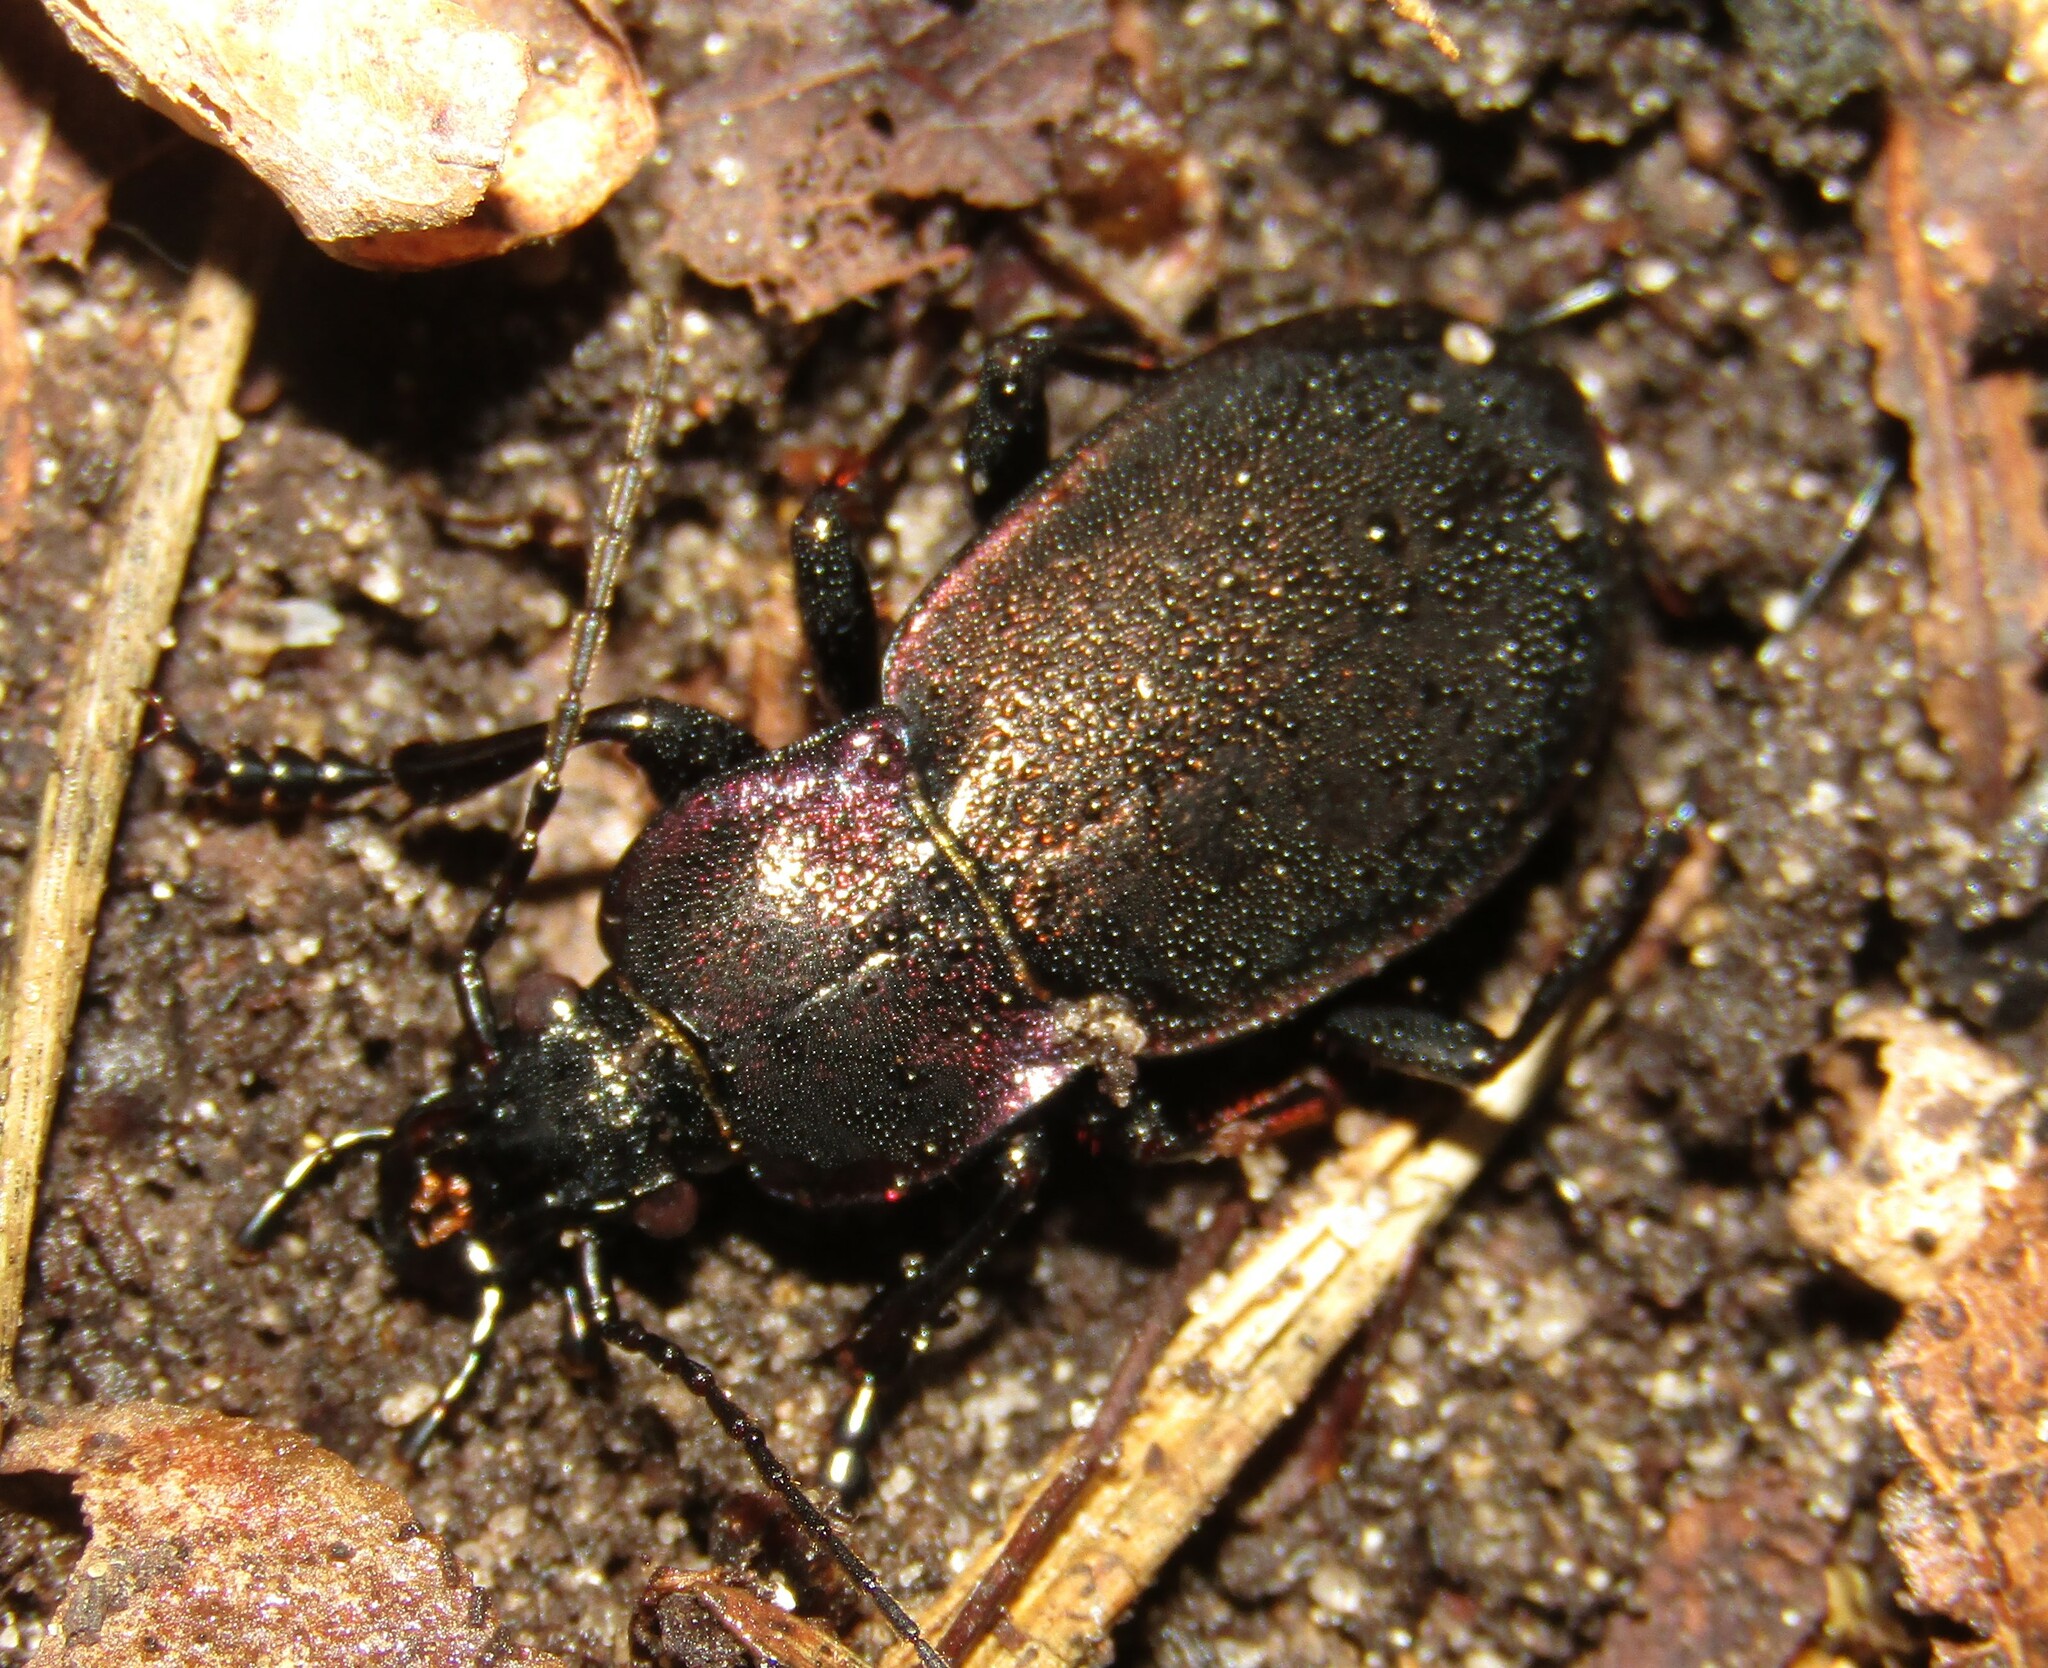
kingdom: Animalia
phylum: Arthropoda
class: Insecta
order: Coleoptera
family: Carabidae
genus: Carabus
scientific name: Carabus nemoralis
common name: European ground beetle
